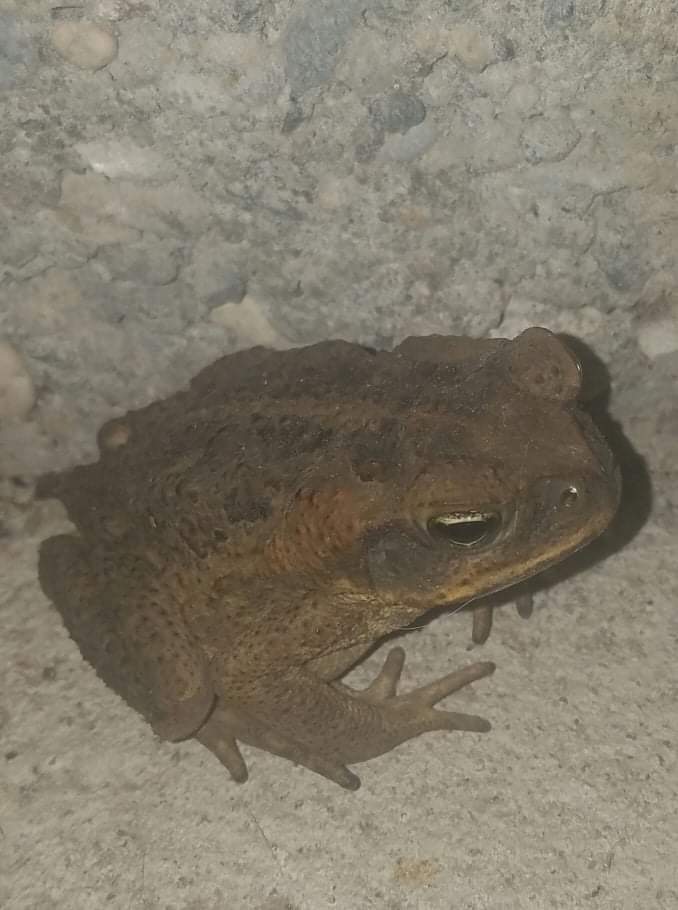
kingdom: Animalia
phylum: Chordata
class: Amphibia
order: Anura
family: Bufonidae
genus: Rhinella
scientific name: Rhinella marina
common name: Cane toad
